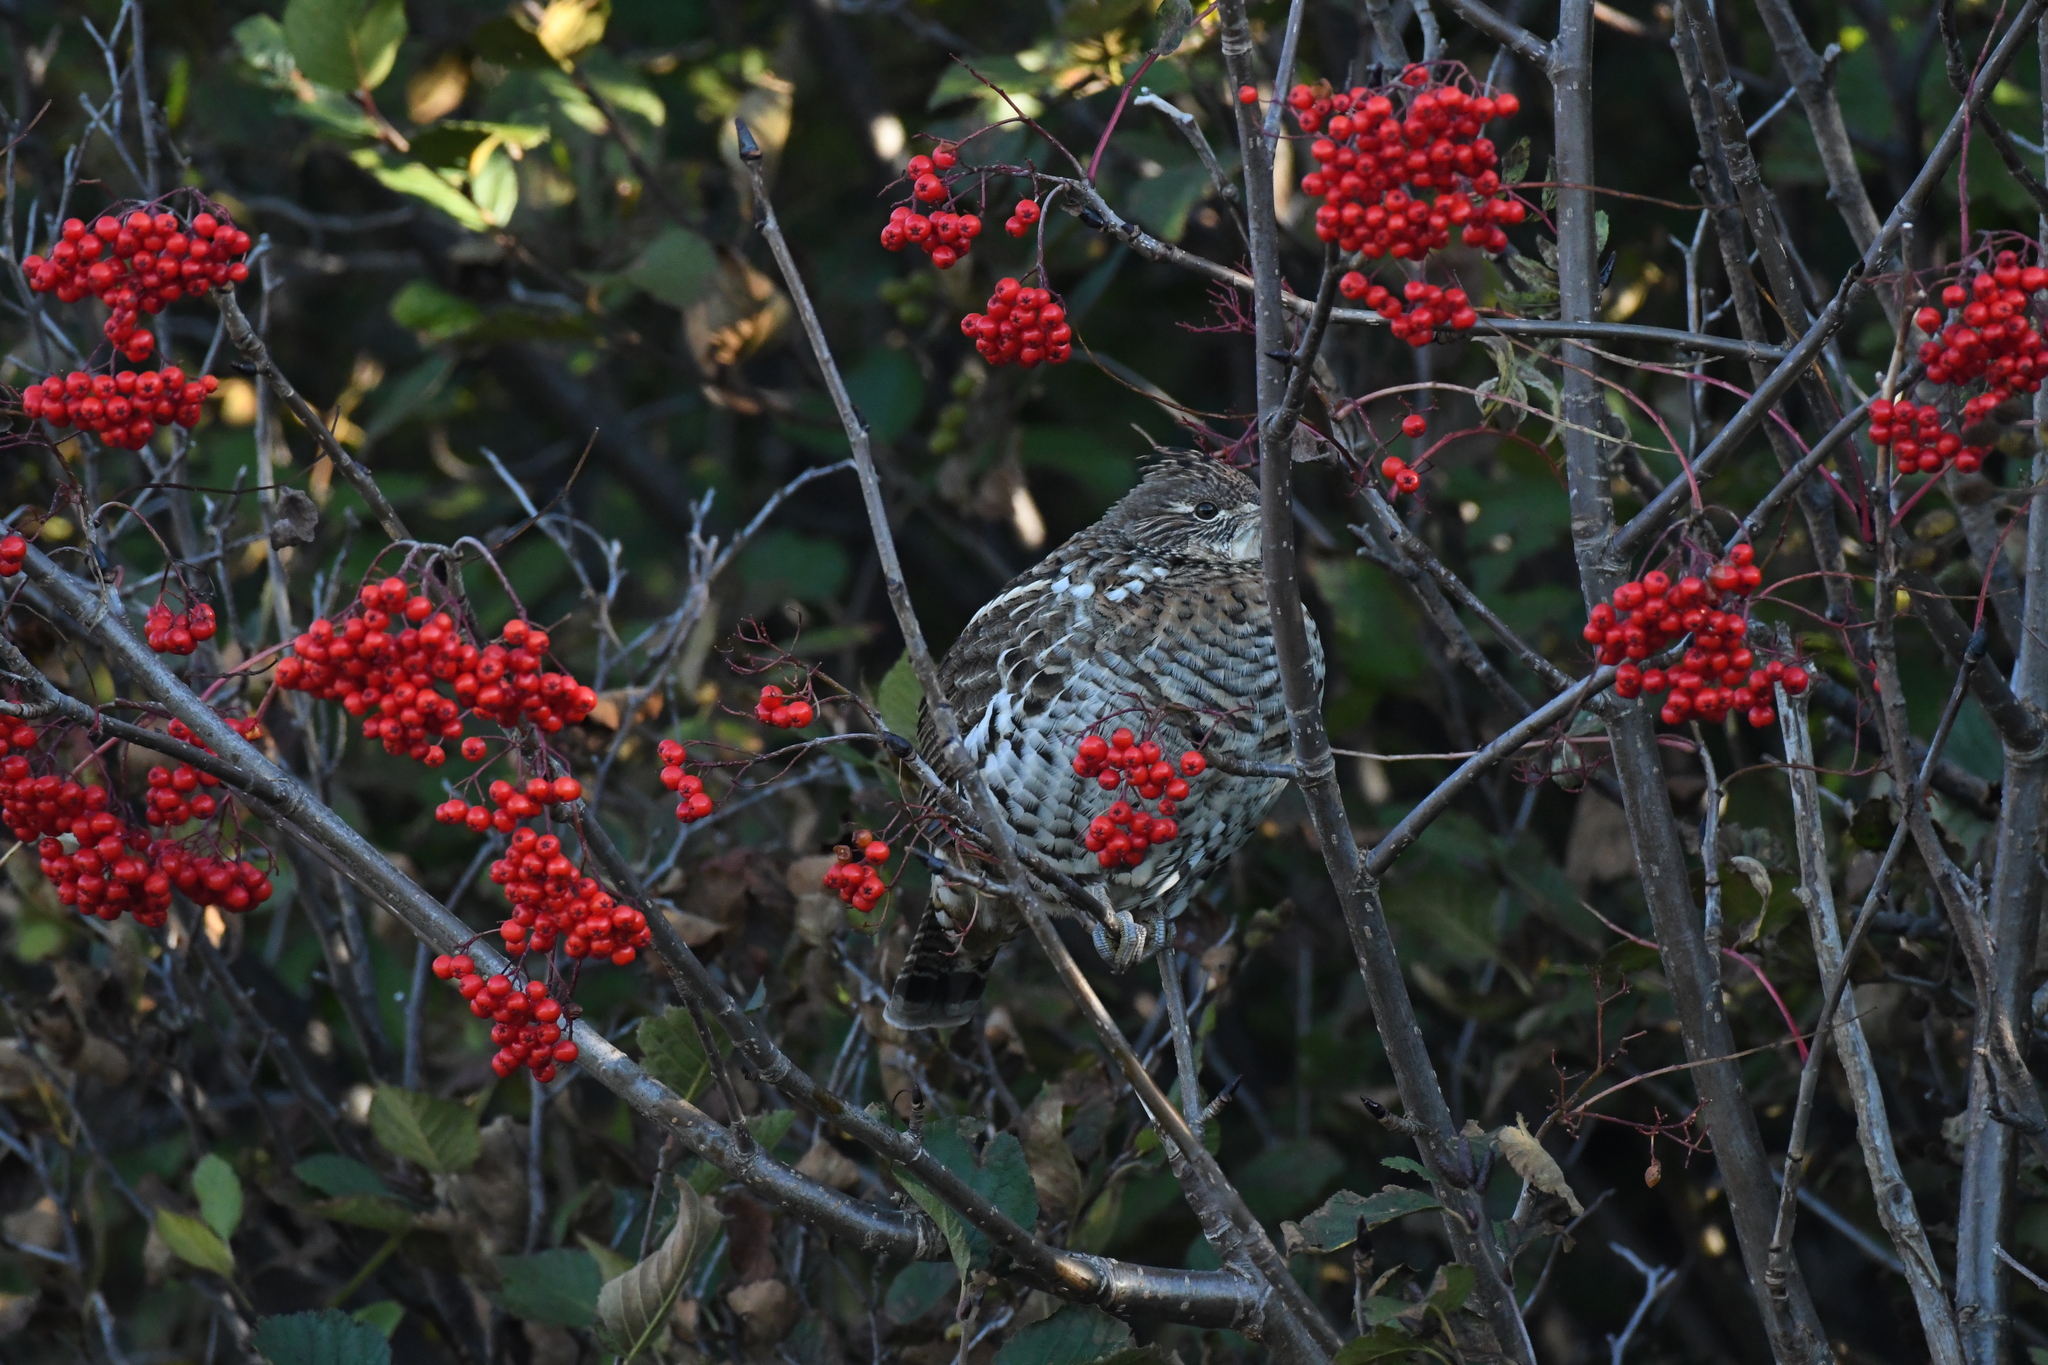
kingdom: Animalia
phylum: Chordata
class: Aves
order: Galliformes
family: Phasianidae
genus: Bonasa
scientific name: Bonasa umbellus
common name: Ruffed grouse
